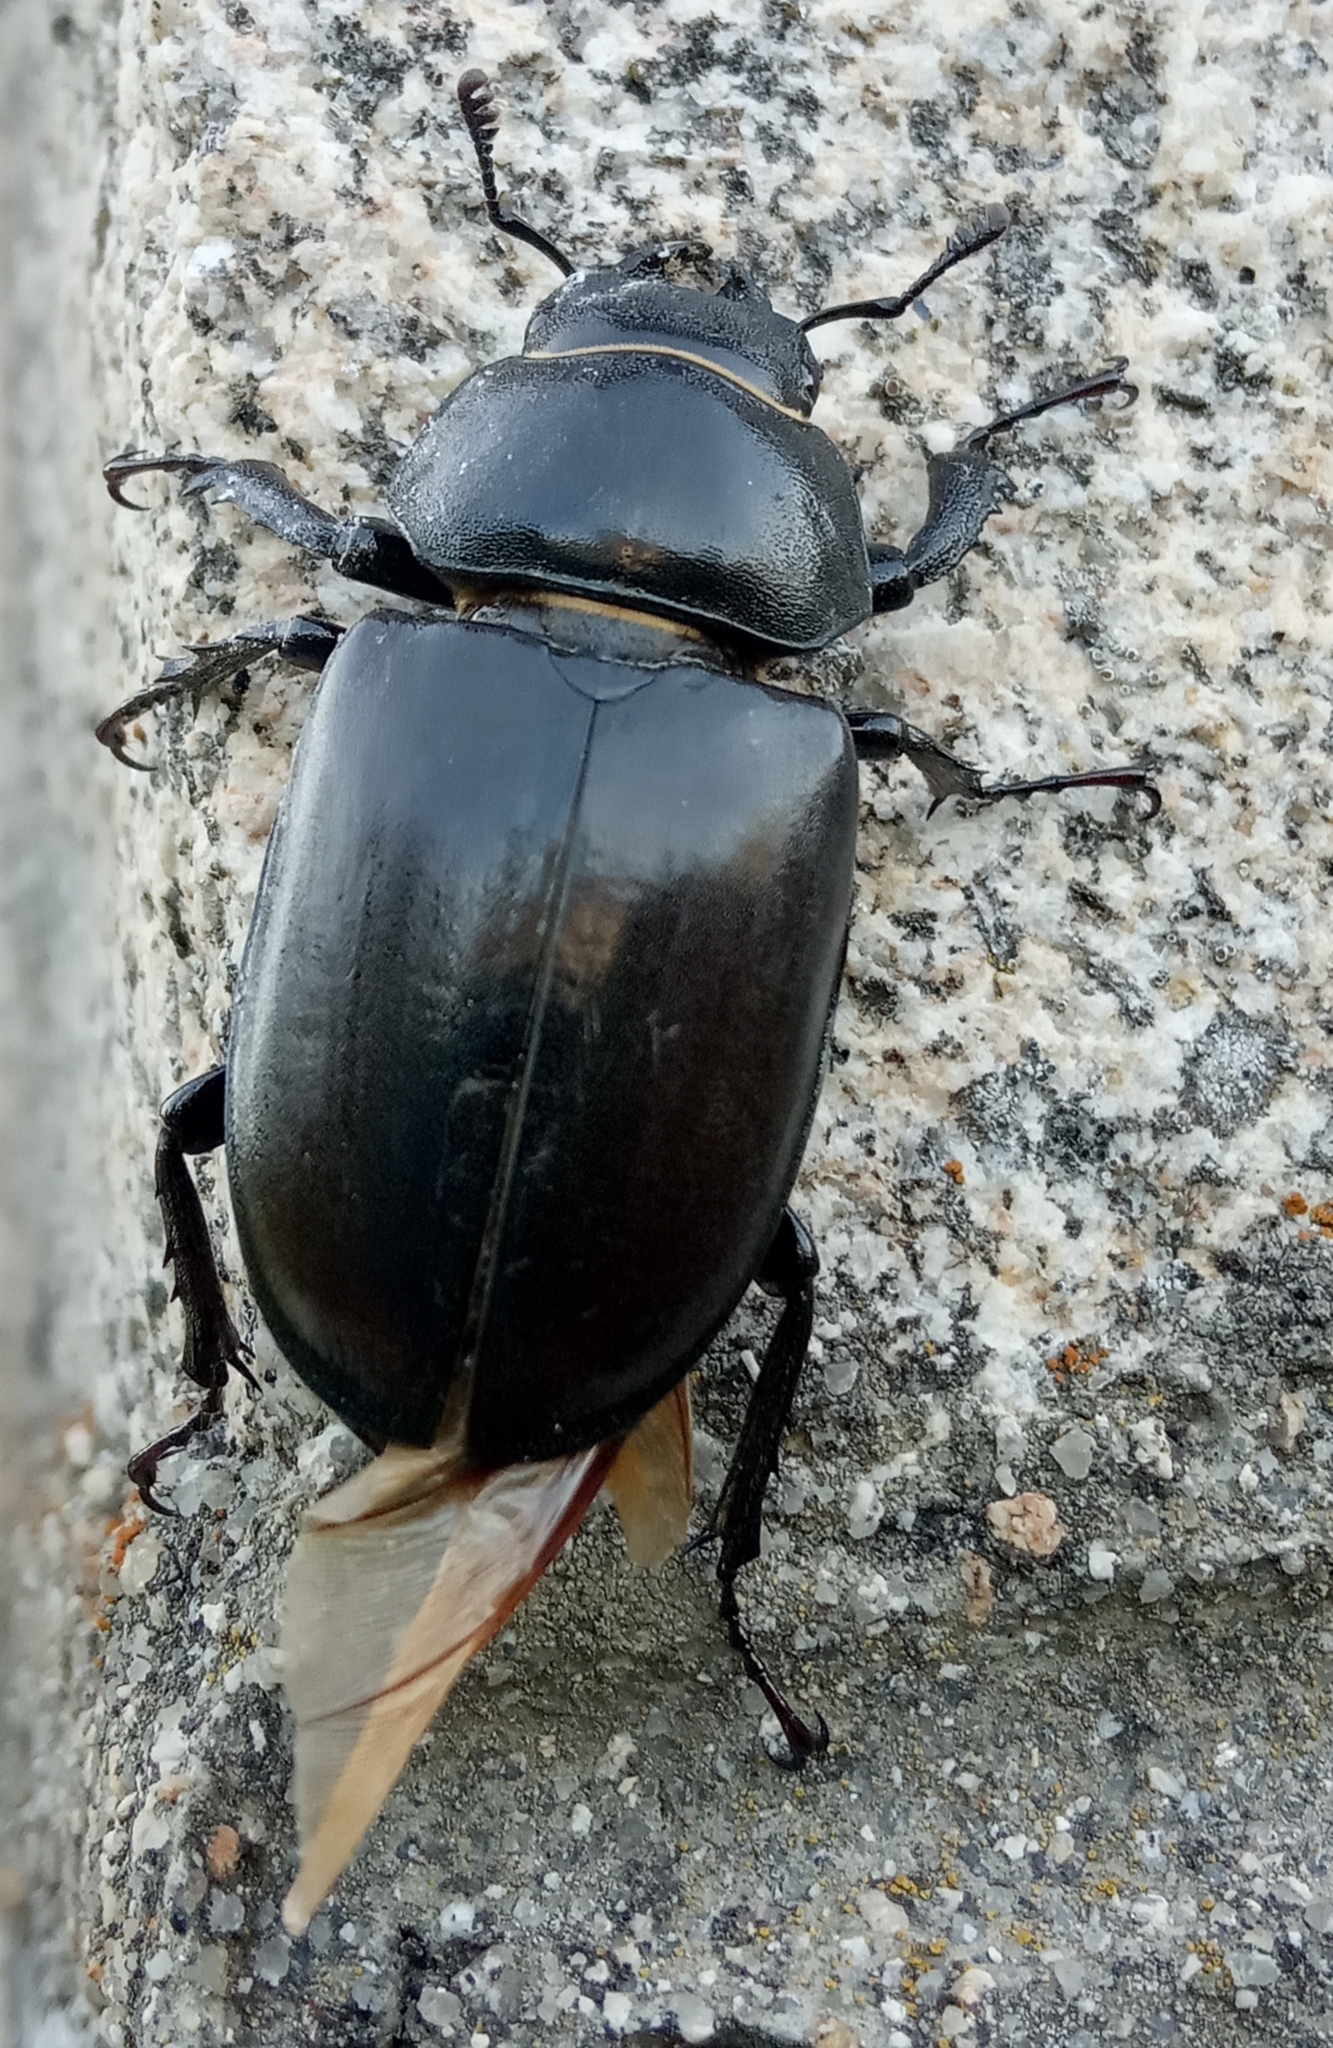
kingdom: Animalia
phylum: Arthropoda
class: Insecta
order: Coleoptera
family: Lucanidae
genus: Lucanus
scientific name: Lucanus cervus
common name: Stag beetle
